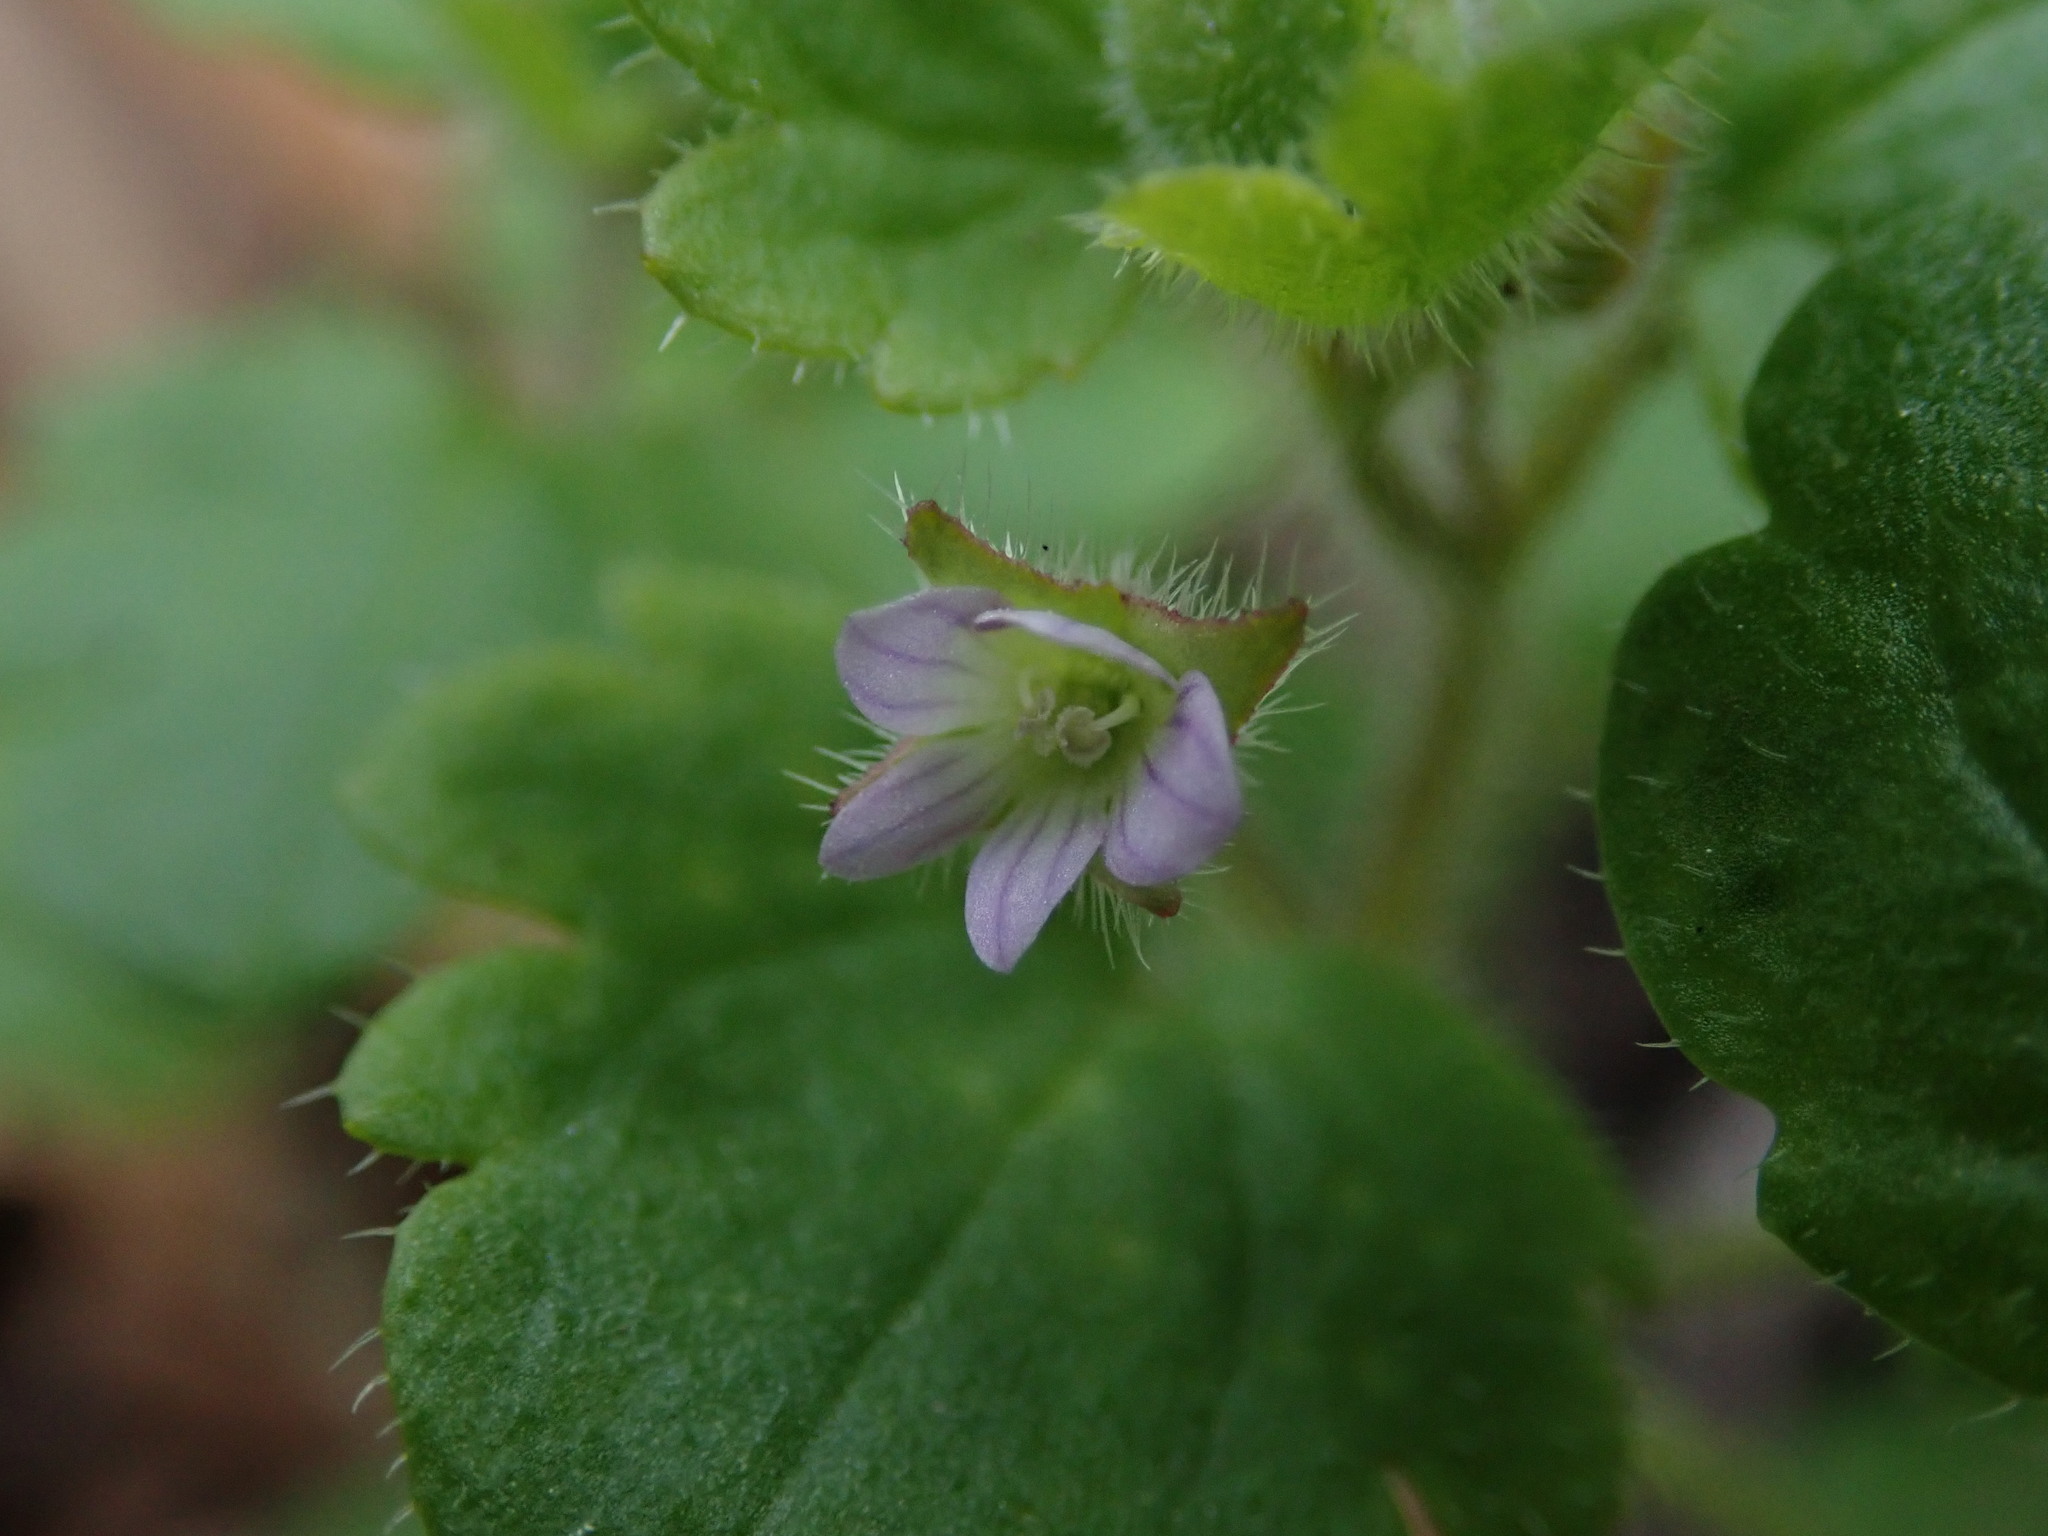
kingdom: Plantae
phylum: Tracheophyta
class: Magnoliopsida
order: Lamiales
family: Plantaginaceae
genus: Veronica
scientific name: Veronica sublobata
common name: False ivy-leaved speedwell
